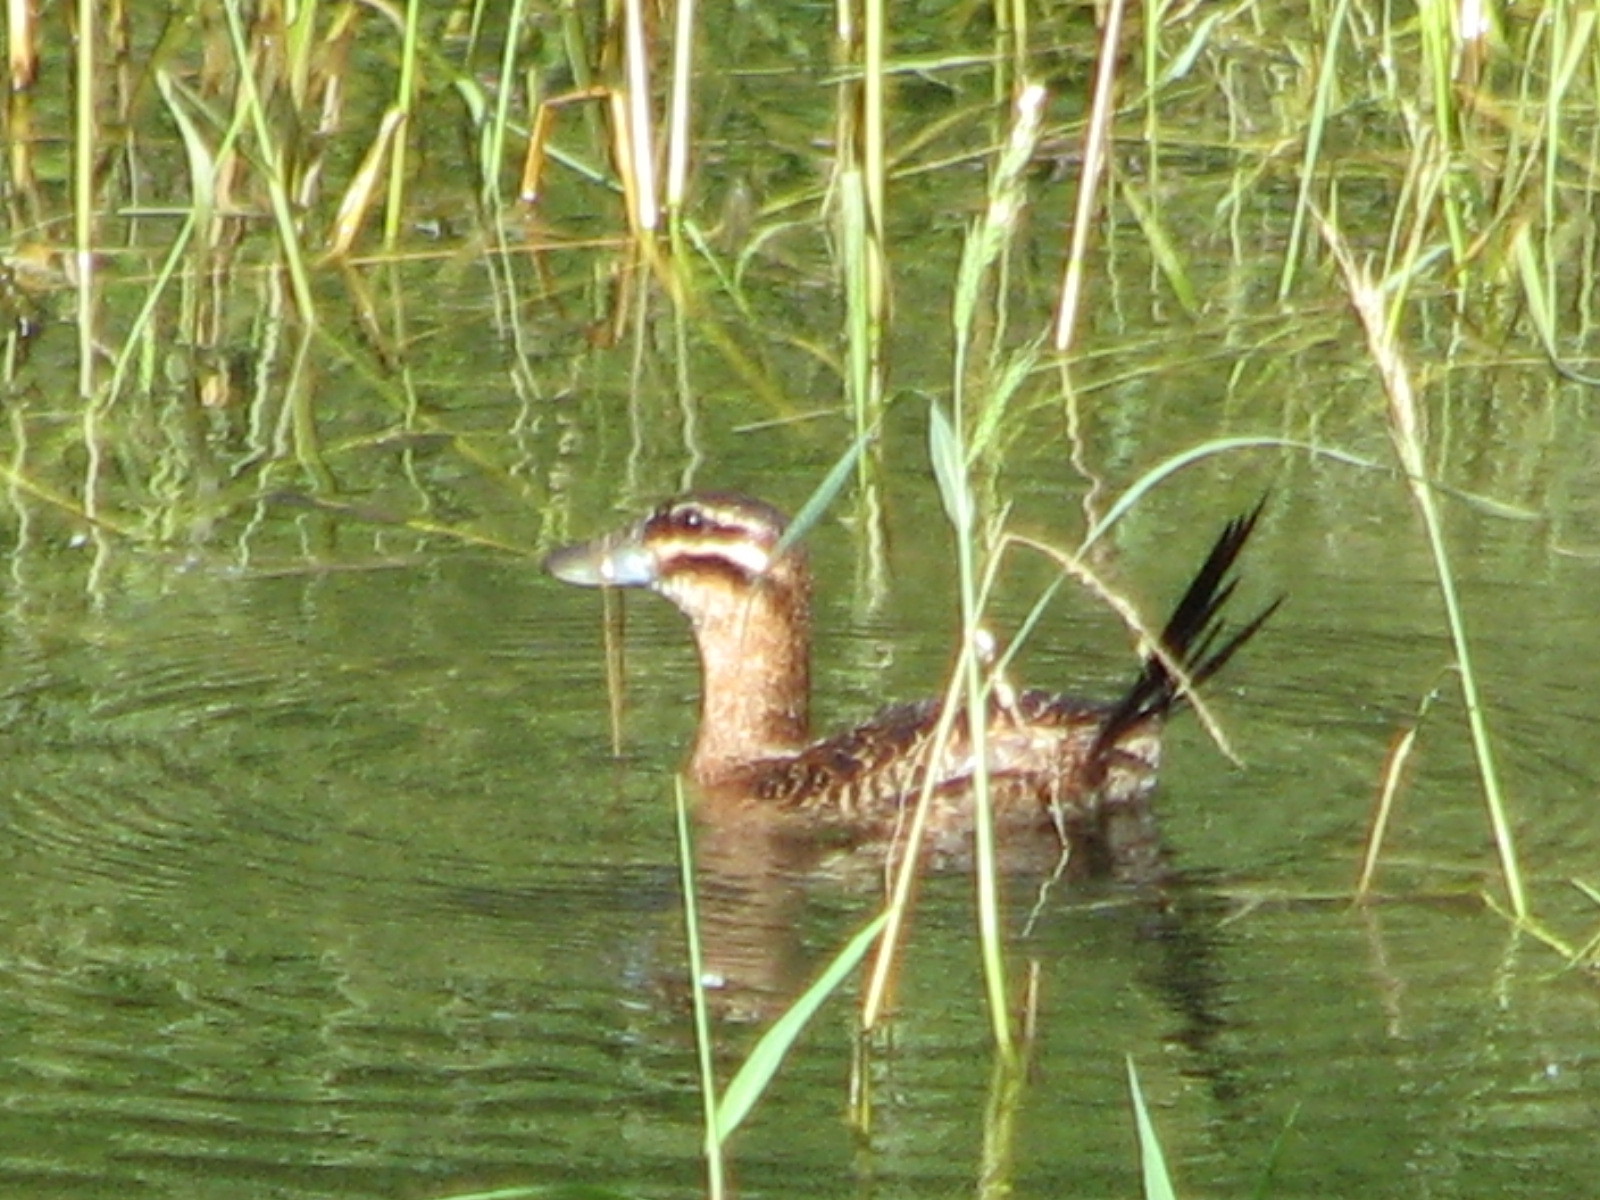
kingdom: Animalia
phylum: Chordata
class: Aves
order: Anseriformes
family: Anatidae
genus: Nomonyx
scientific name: Nomonyx dominicus
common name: Masked duck
